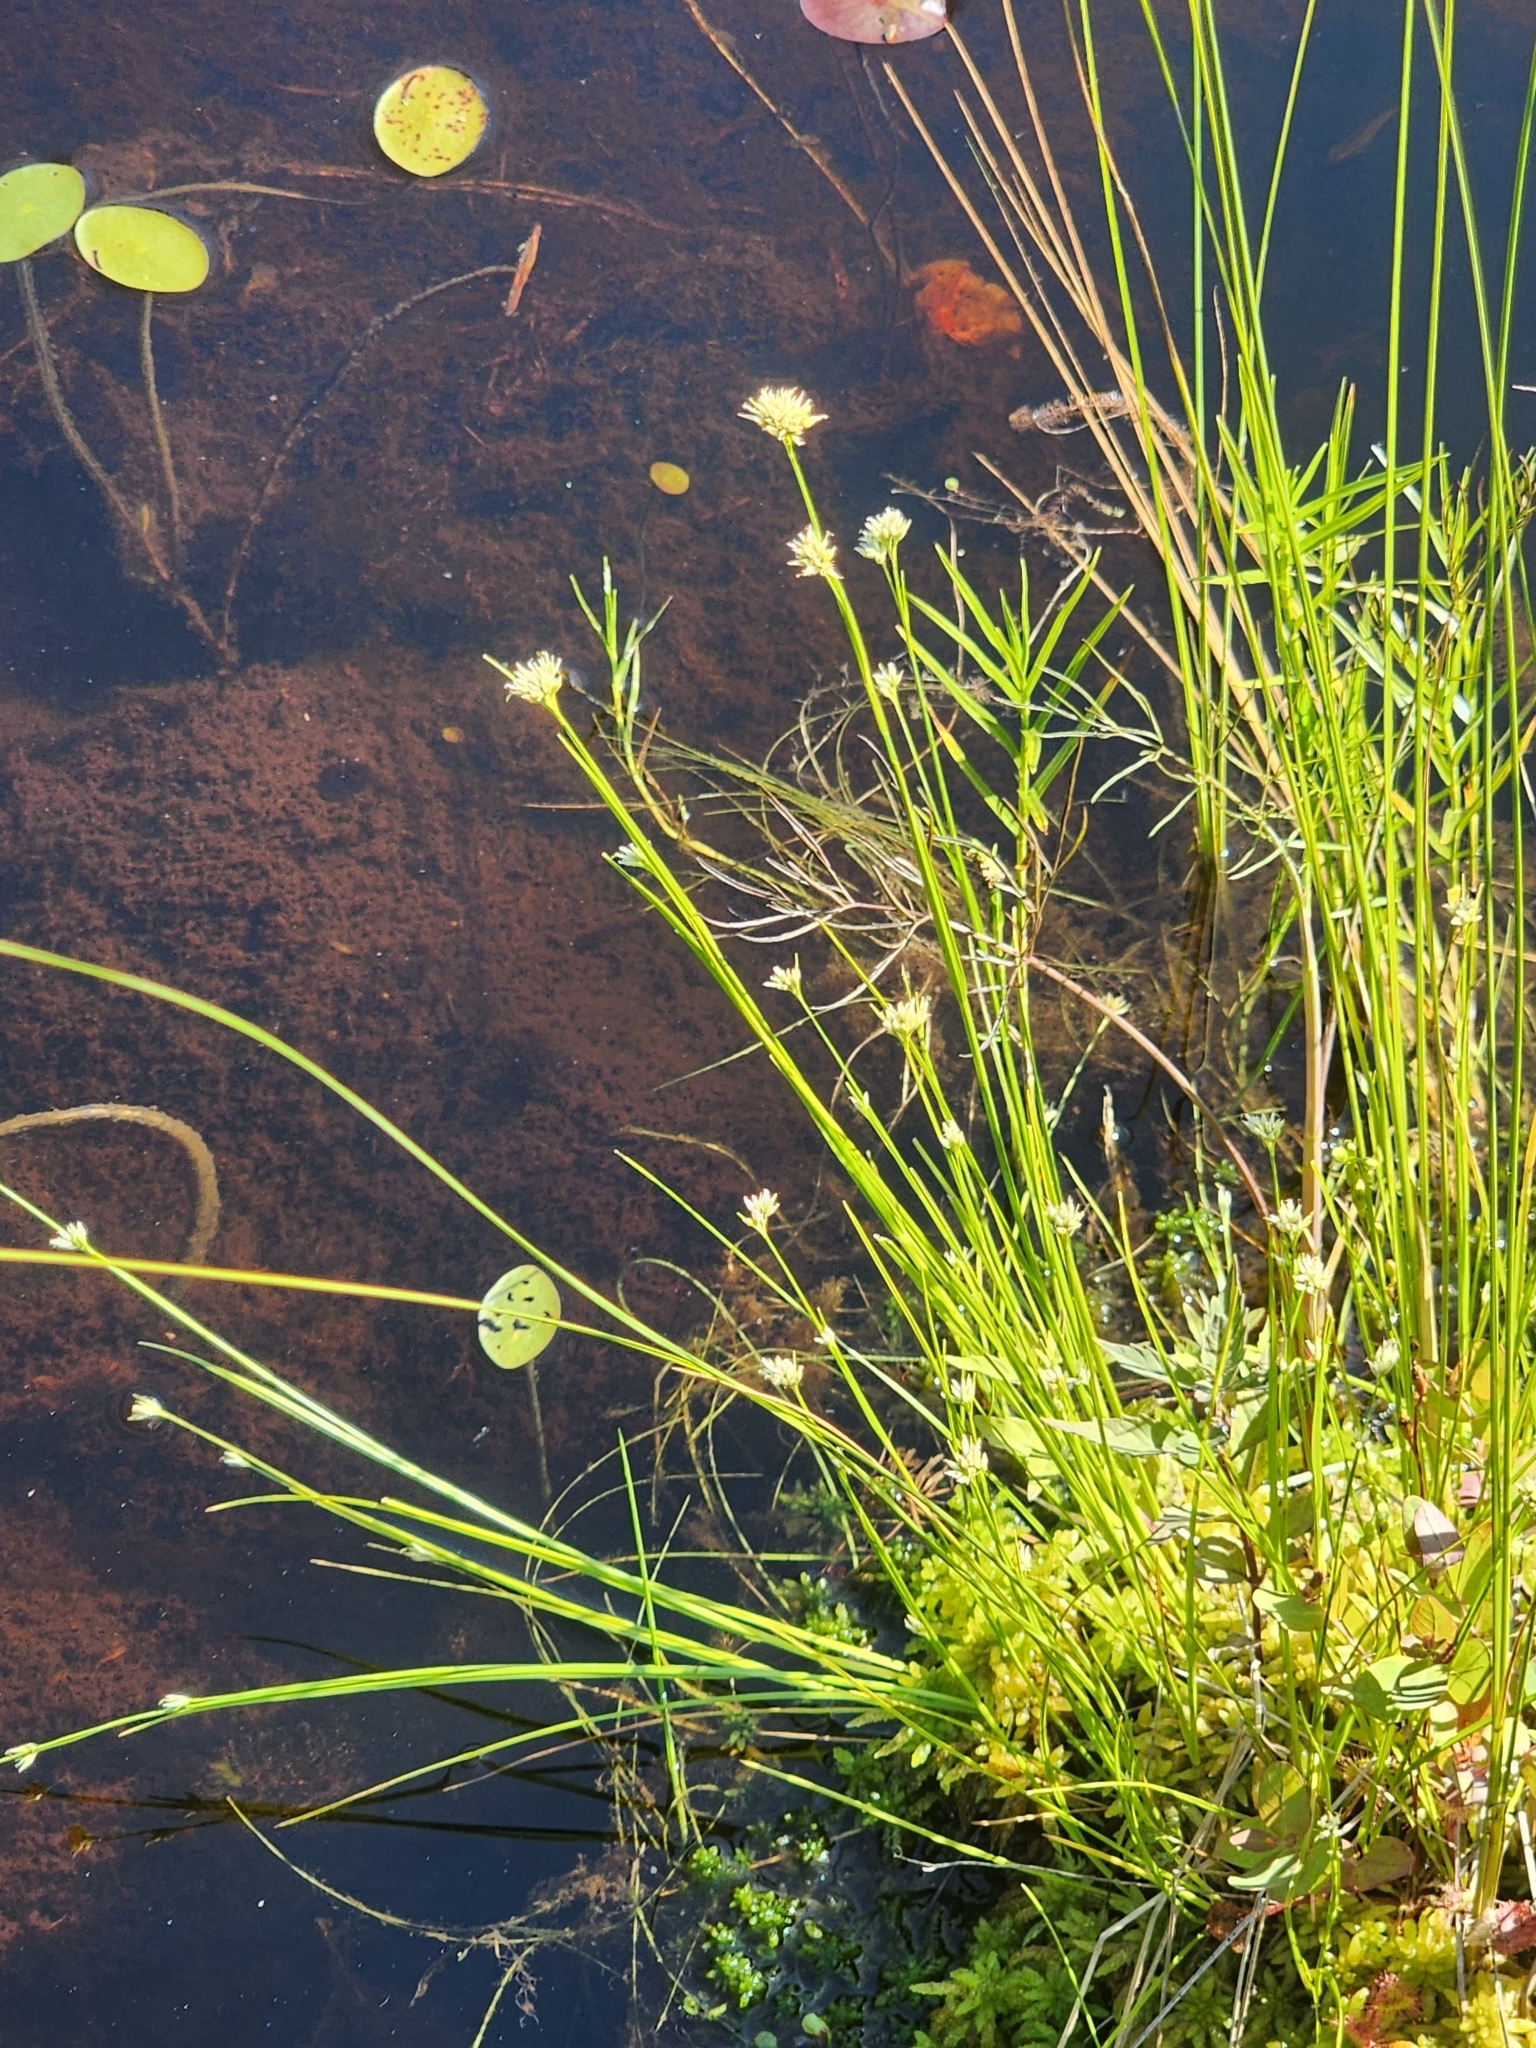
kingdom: Plantae
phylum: Tracheophyta
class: Liliopsida
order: Poales
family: Cyperaceae
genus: Rhynchospora
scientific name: Rhynchospora alba
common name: White beak-sedge
